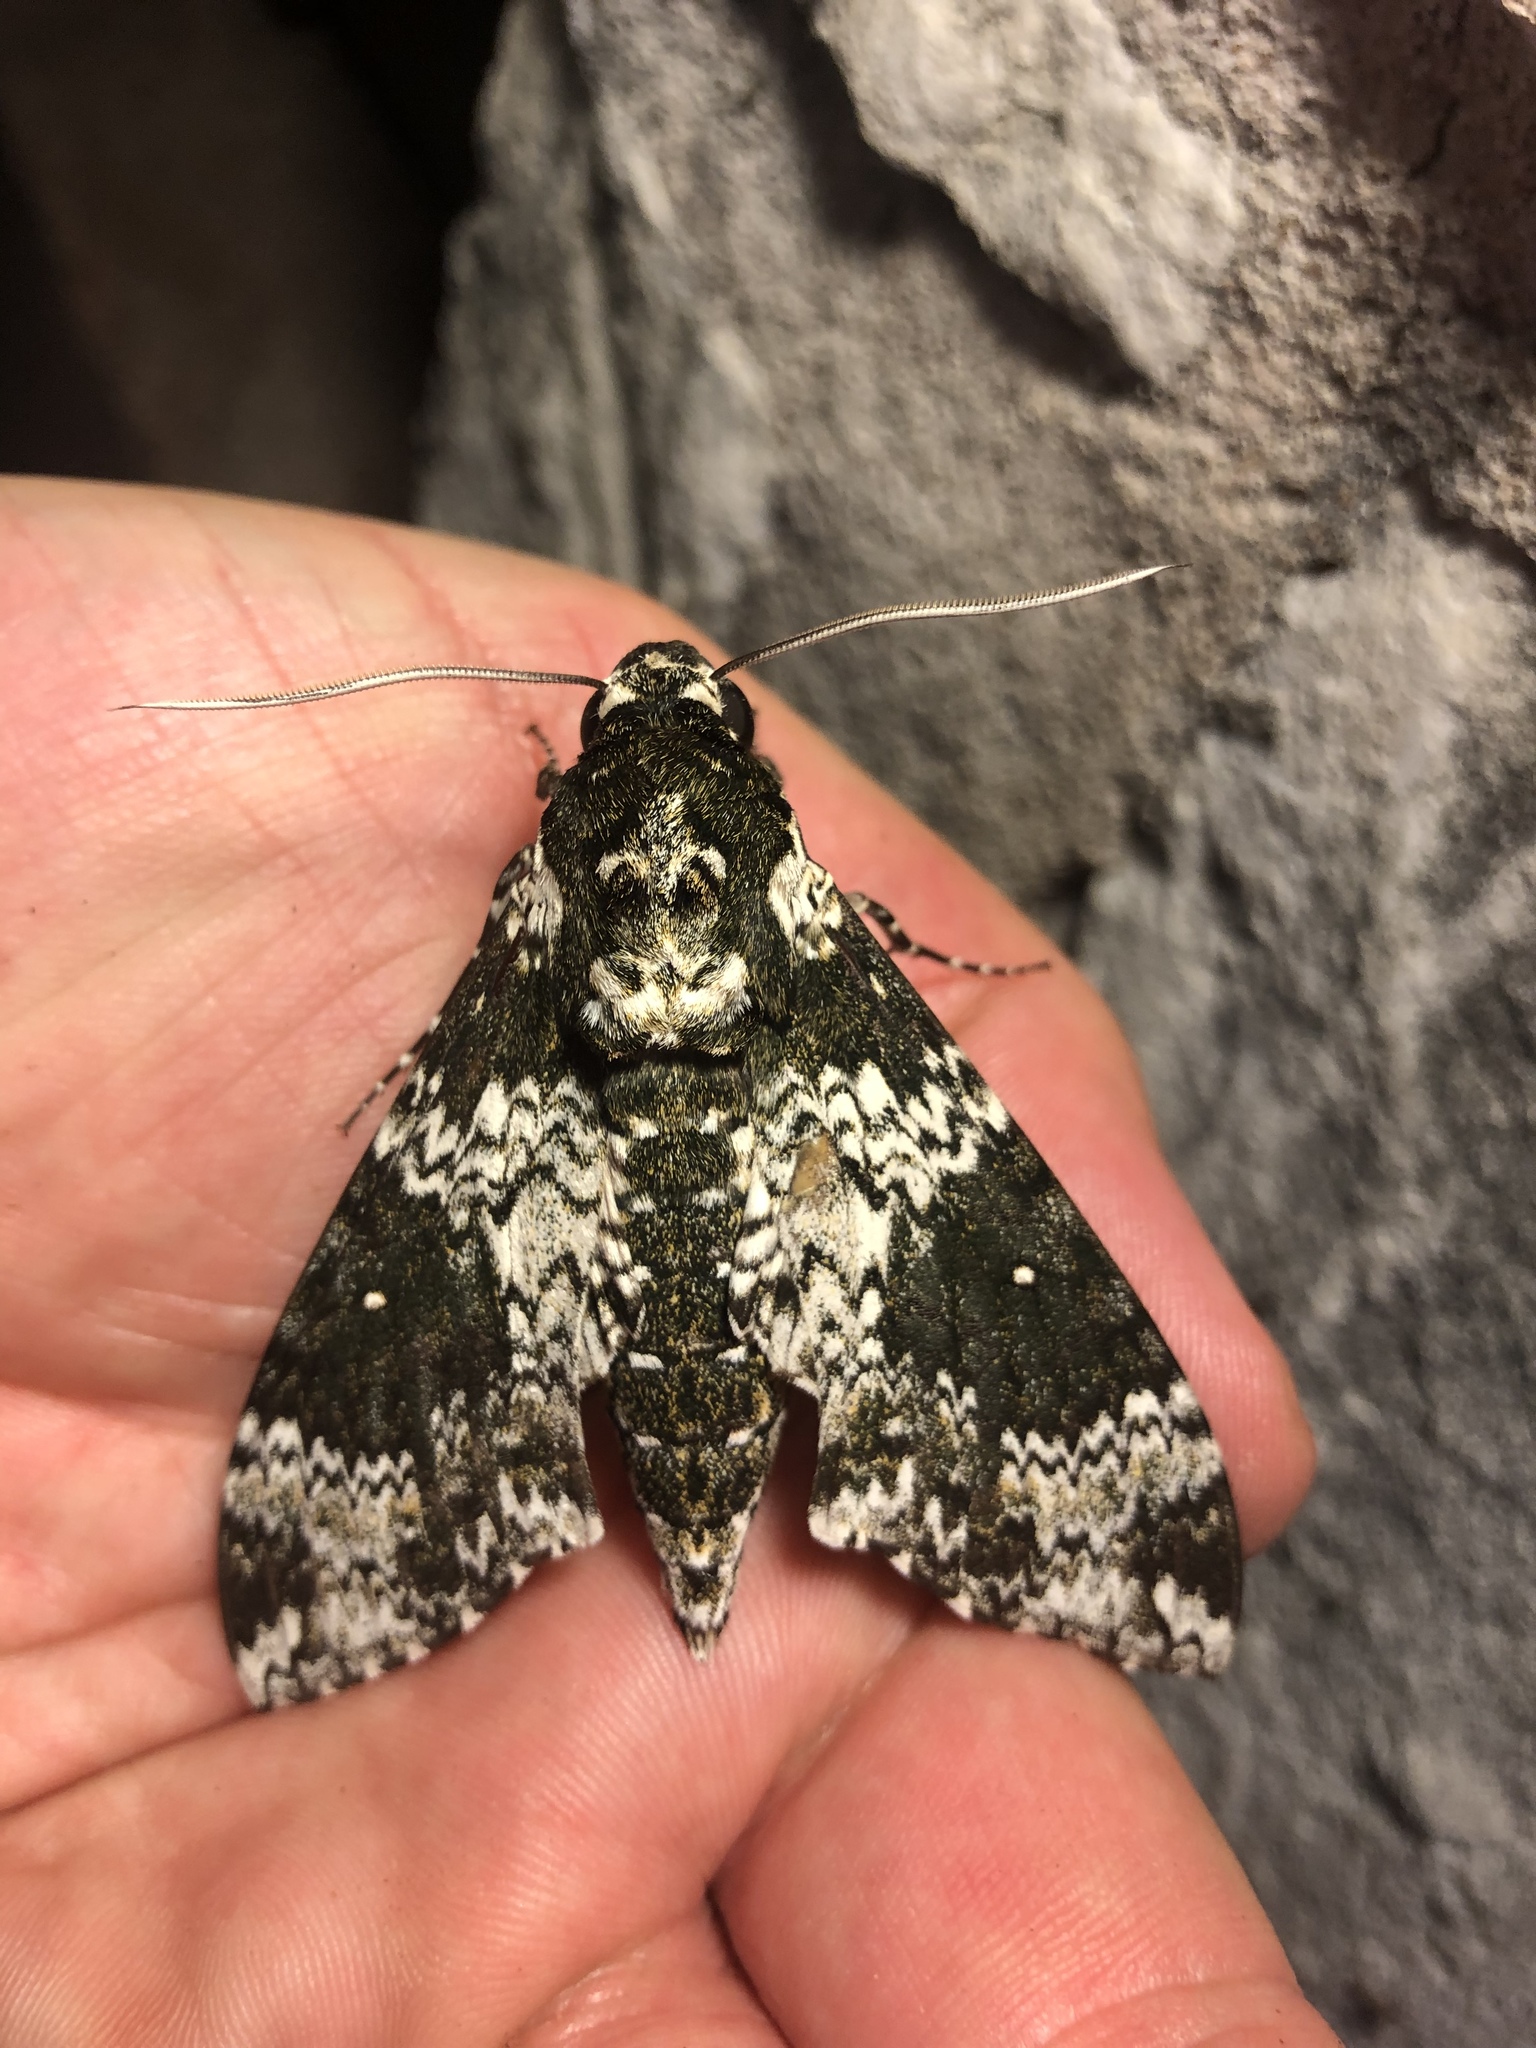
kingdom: Animalia
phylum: Arthropoda
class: Insecta
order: Lepidoptera
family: Sphingidae
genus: Manduca
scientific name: Manduca rustica
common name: Rustic sphinx
